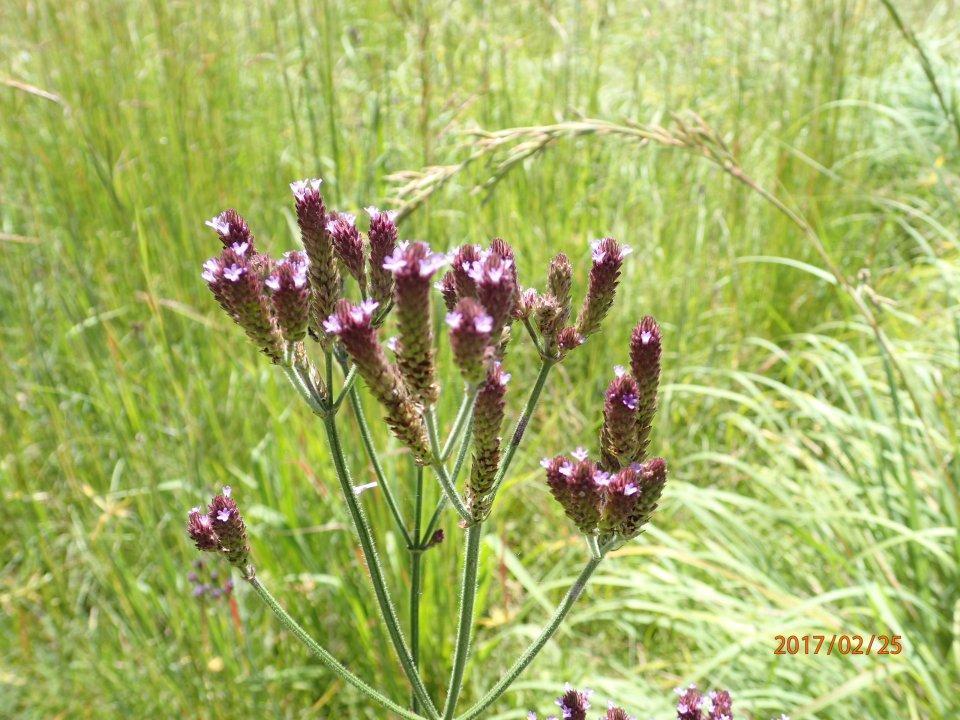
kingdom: Plantae
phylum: Tracheophyta
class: Magnoliopsida
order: Lamiales
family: Verbenaceae
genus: Verbena
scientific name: Verbena bonariensis
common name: Purpletop vervain
